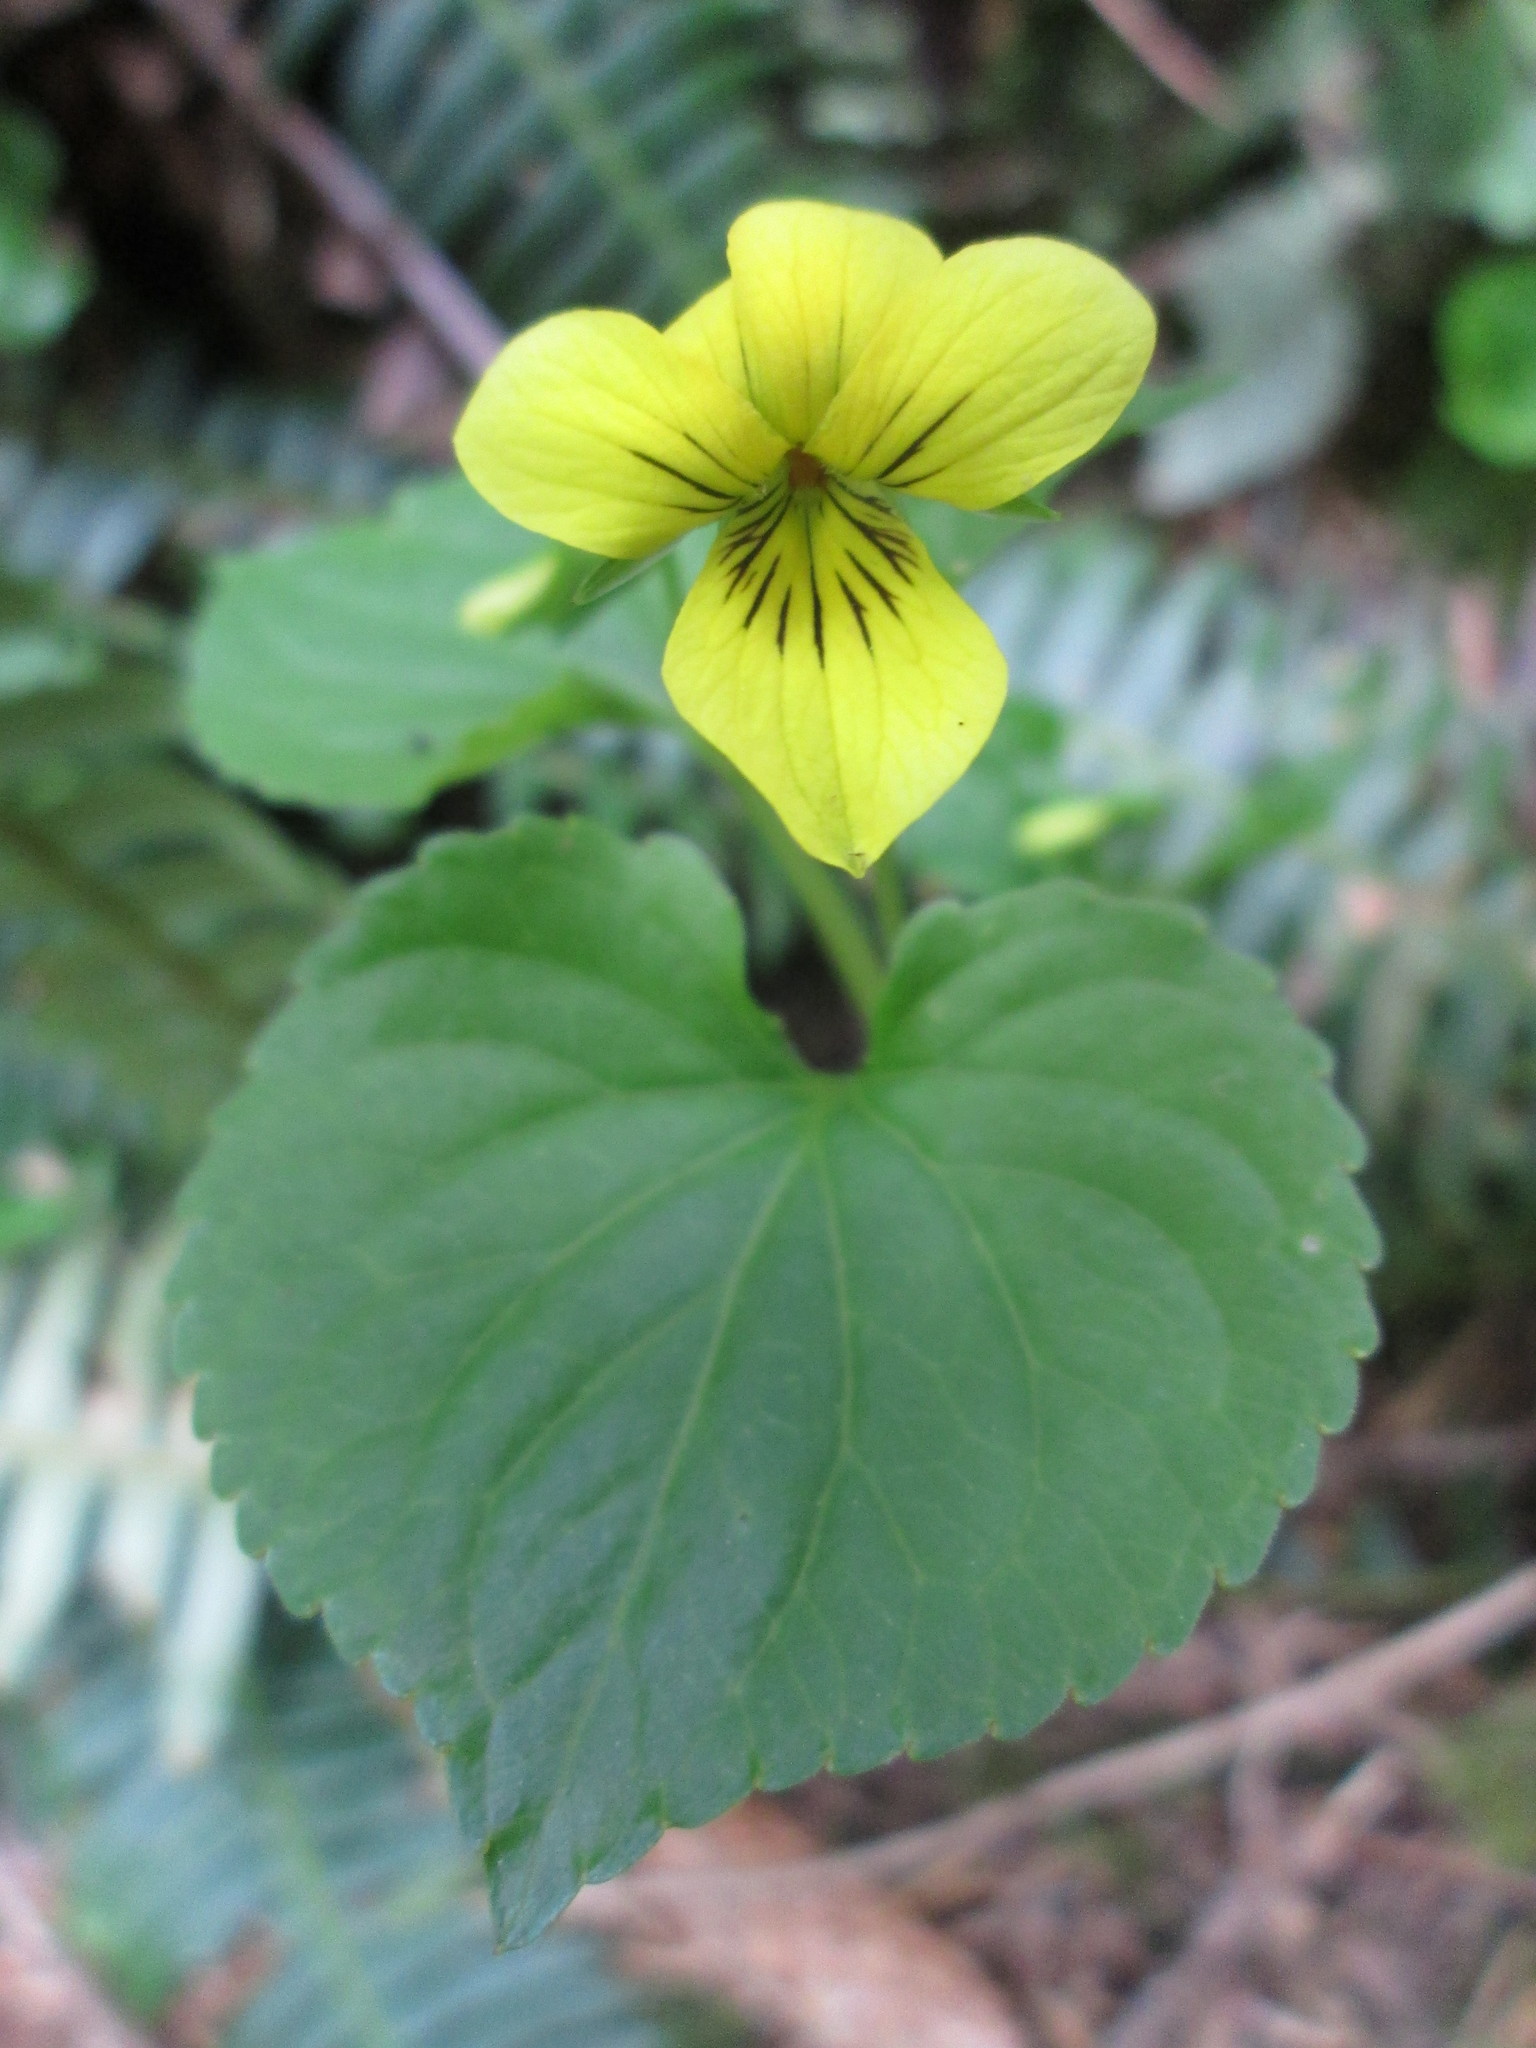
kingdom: Plantae
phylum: Tracheophyta
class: Magnoliopsida
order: Malpighiales
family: Violaceae
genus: Viola
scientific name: Viola glabella
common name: Stream violet
